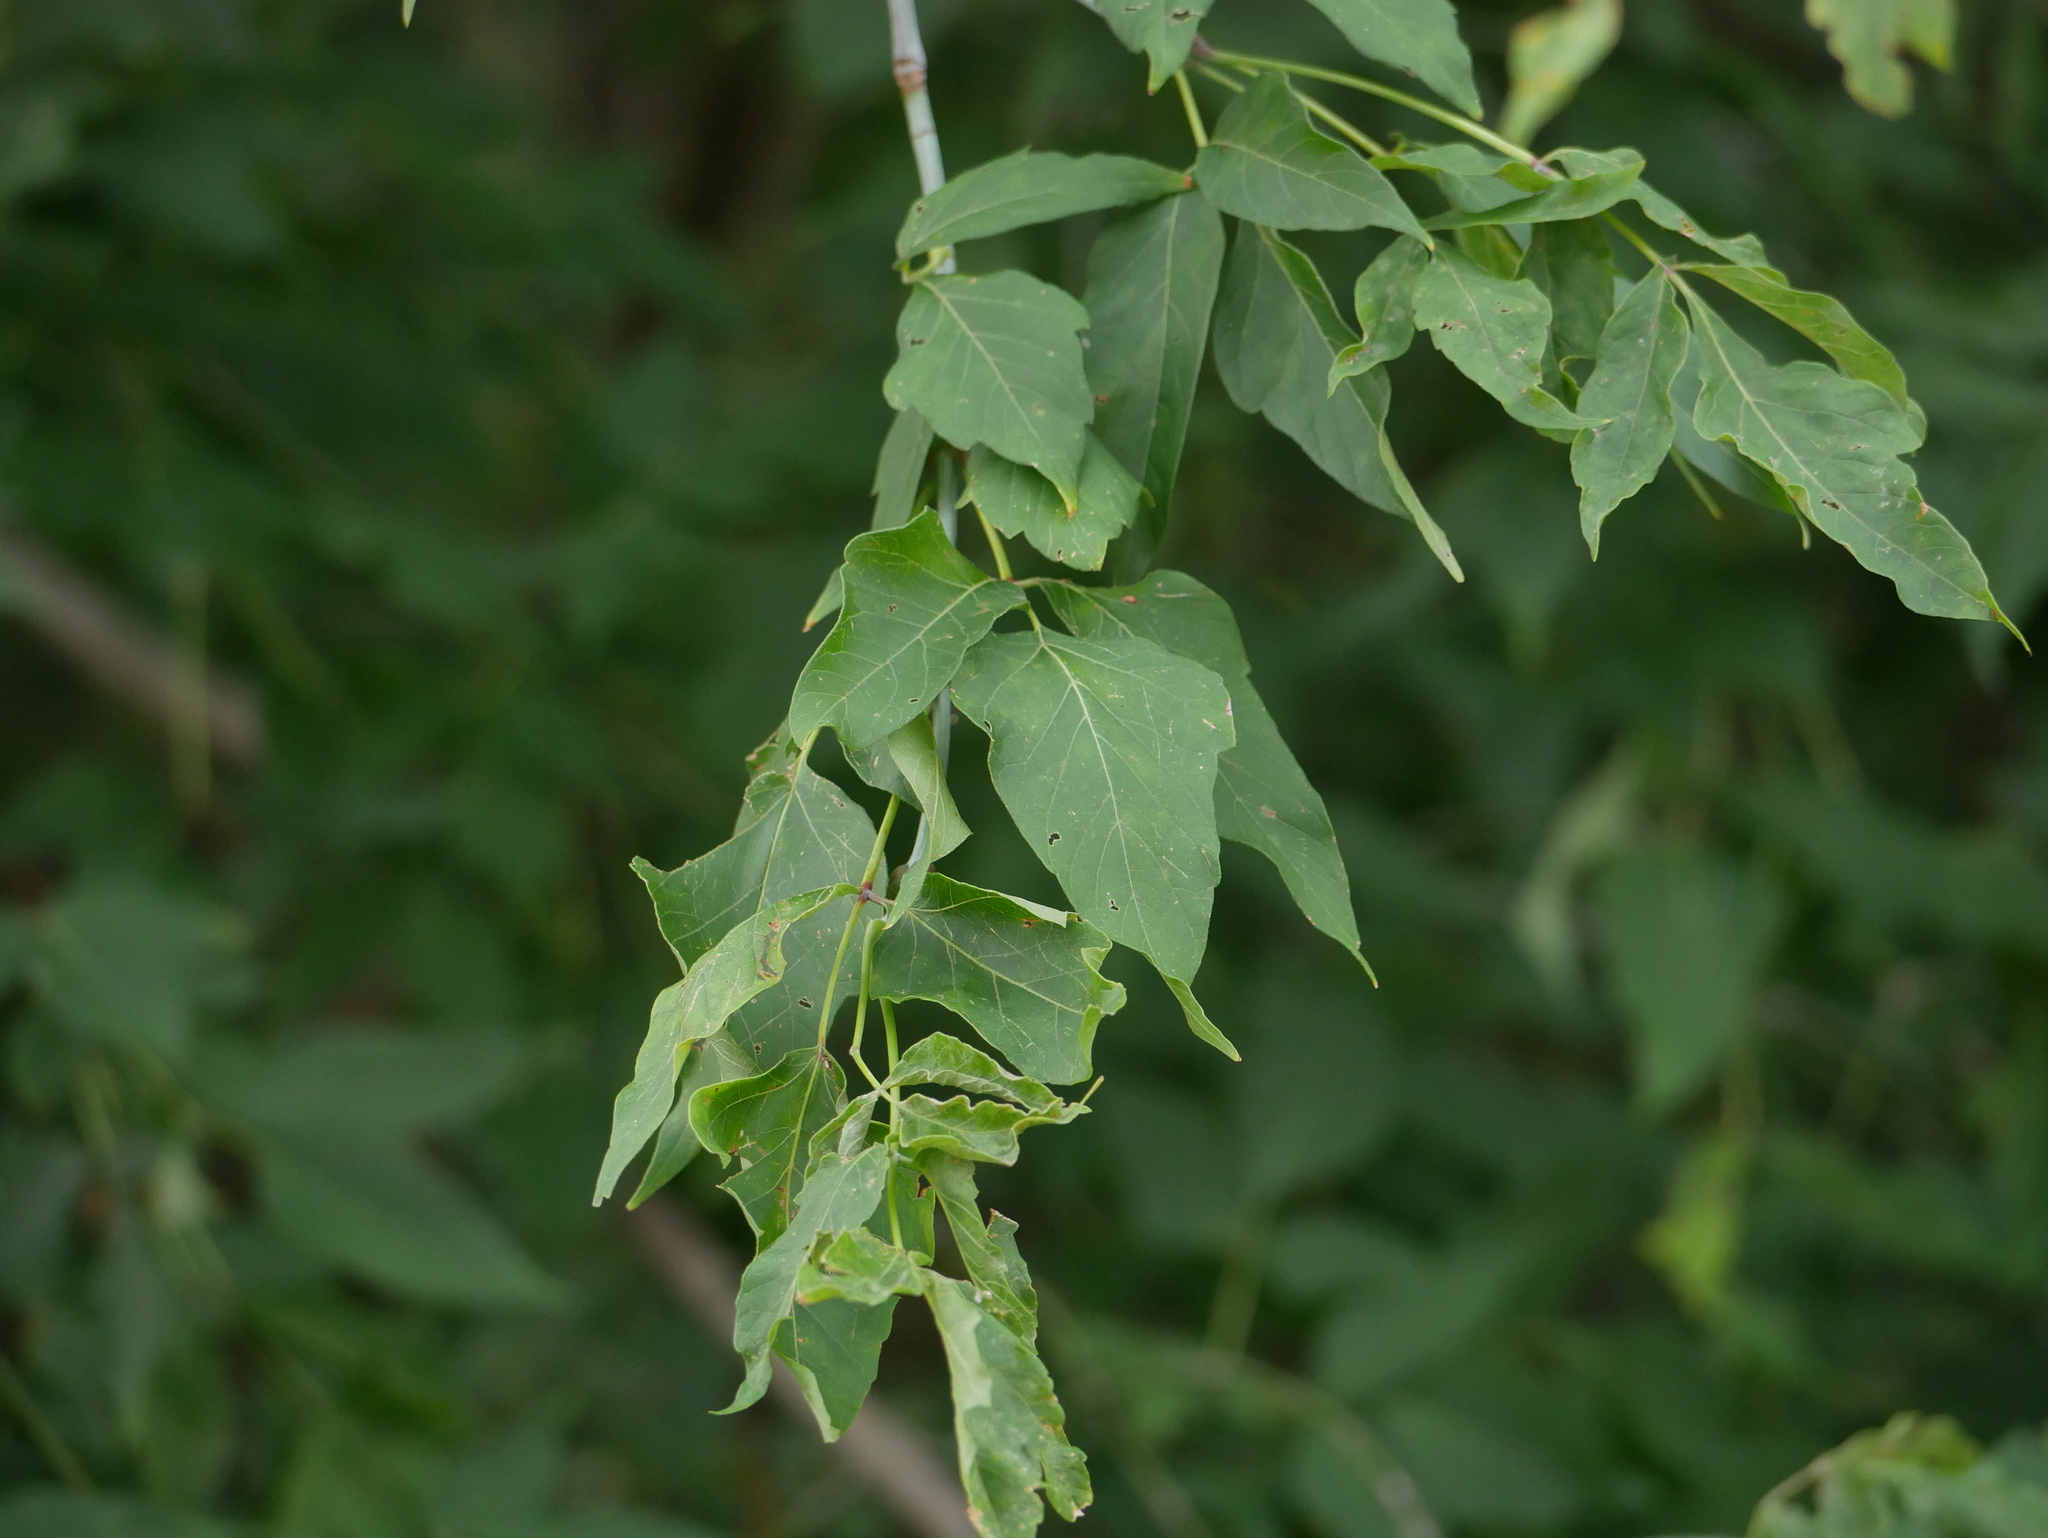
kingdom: Plantae
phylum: Tracheophyta
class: Magnoliopsida
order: Sapindales
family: Sapindaceae
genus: Acer
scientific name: Acer negundo
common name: Ashleaf maple
